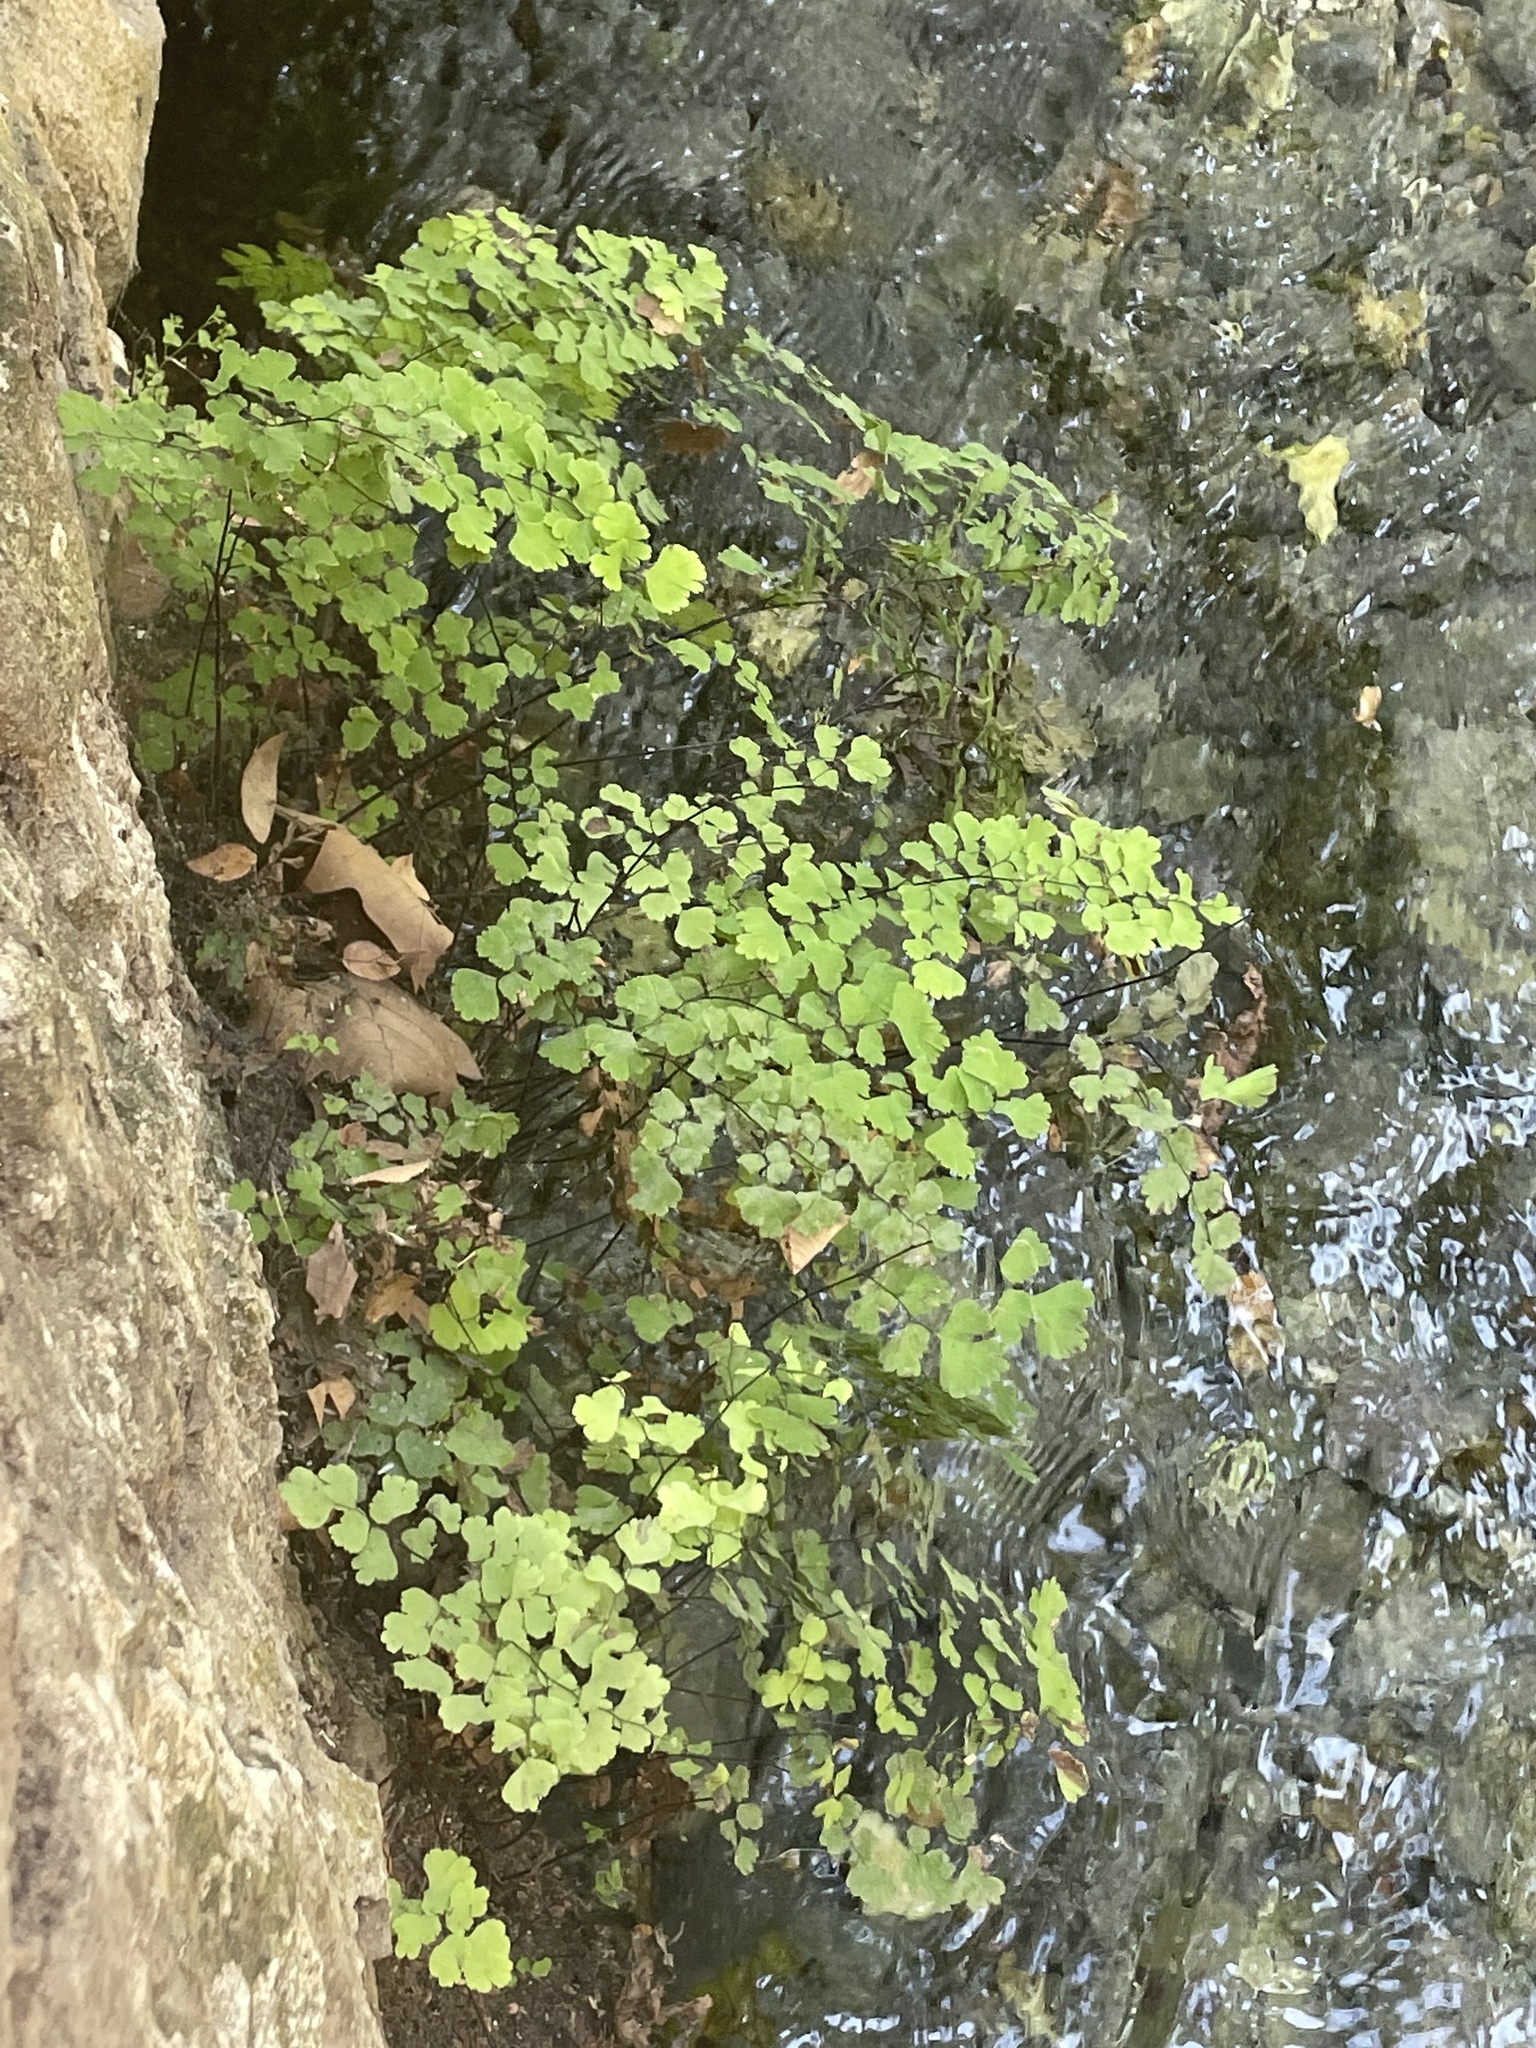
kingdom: Plantae
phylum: Tracheophyta
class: Polypodiopsida
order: Polypodiales
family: Pteridaceae
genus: Adiantum
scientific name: Adiantum capillus-veneris
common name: Maidenhair fern
